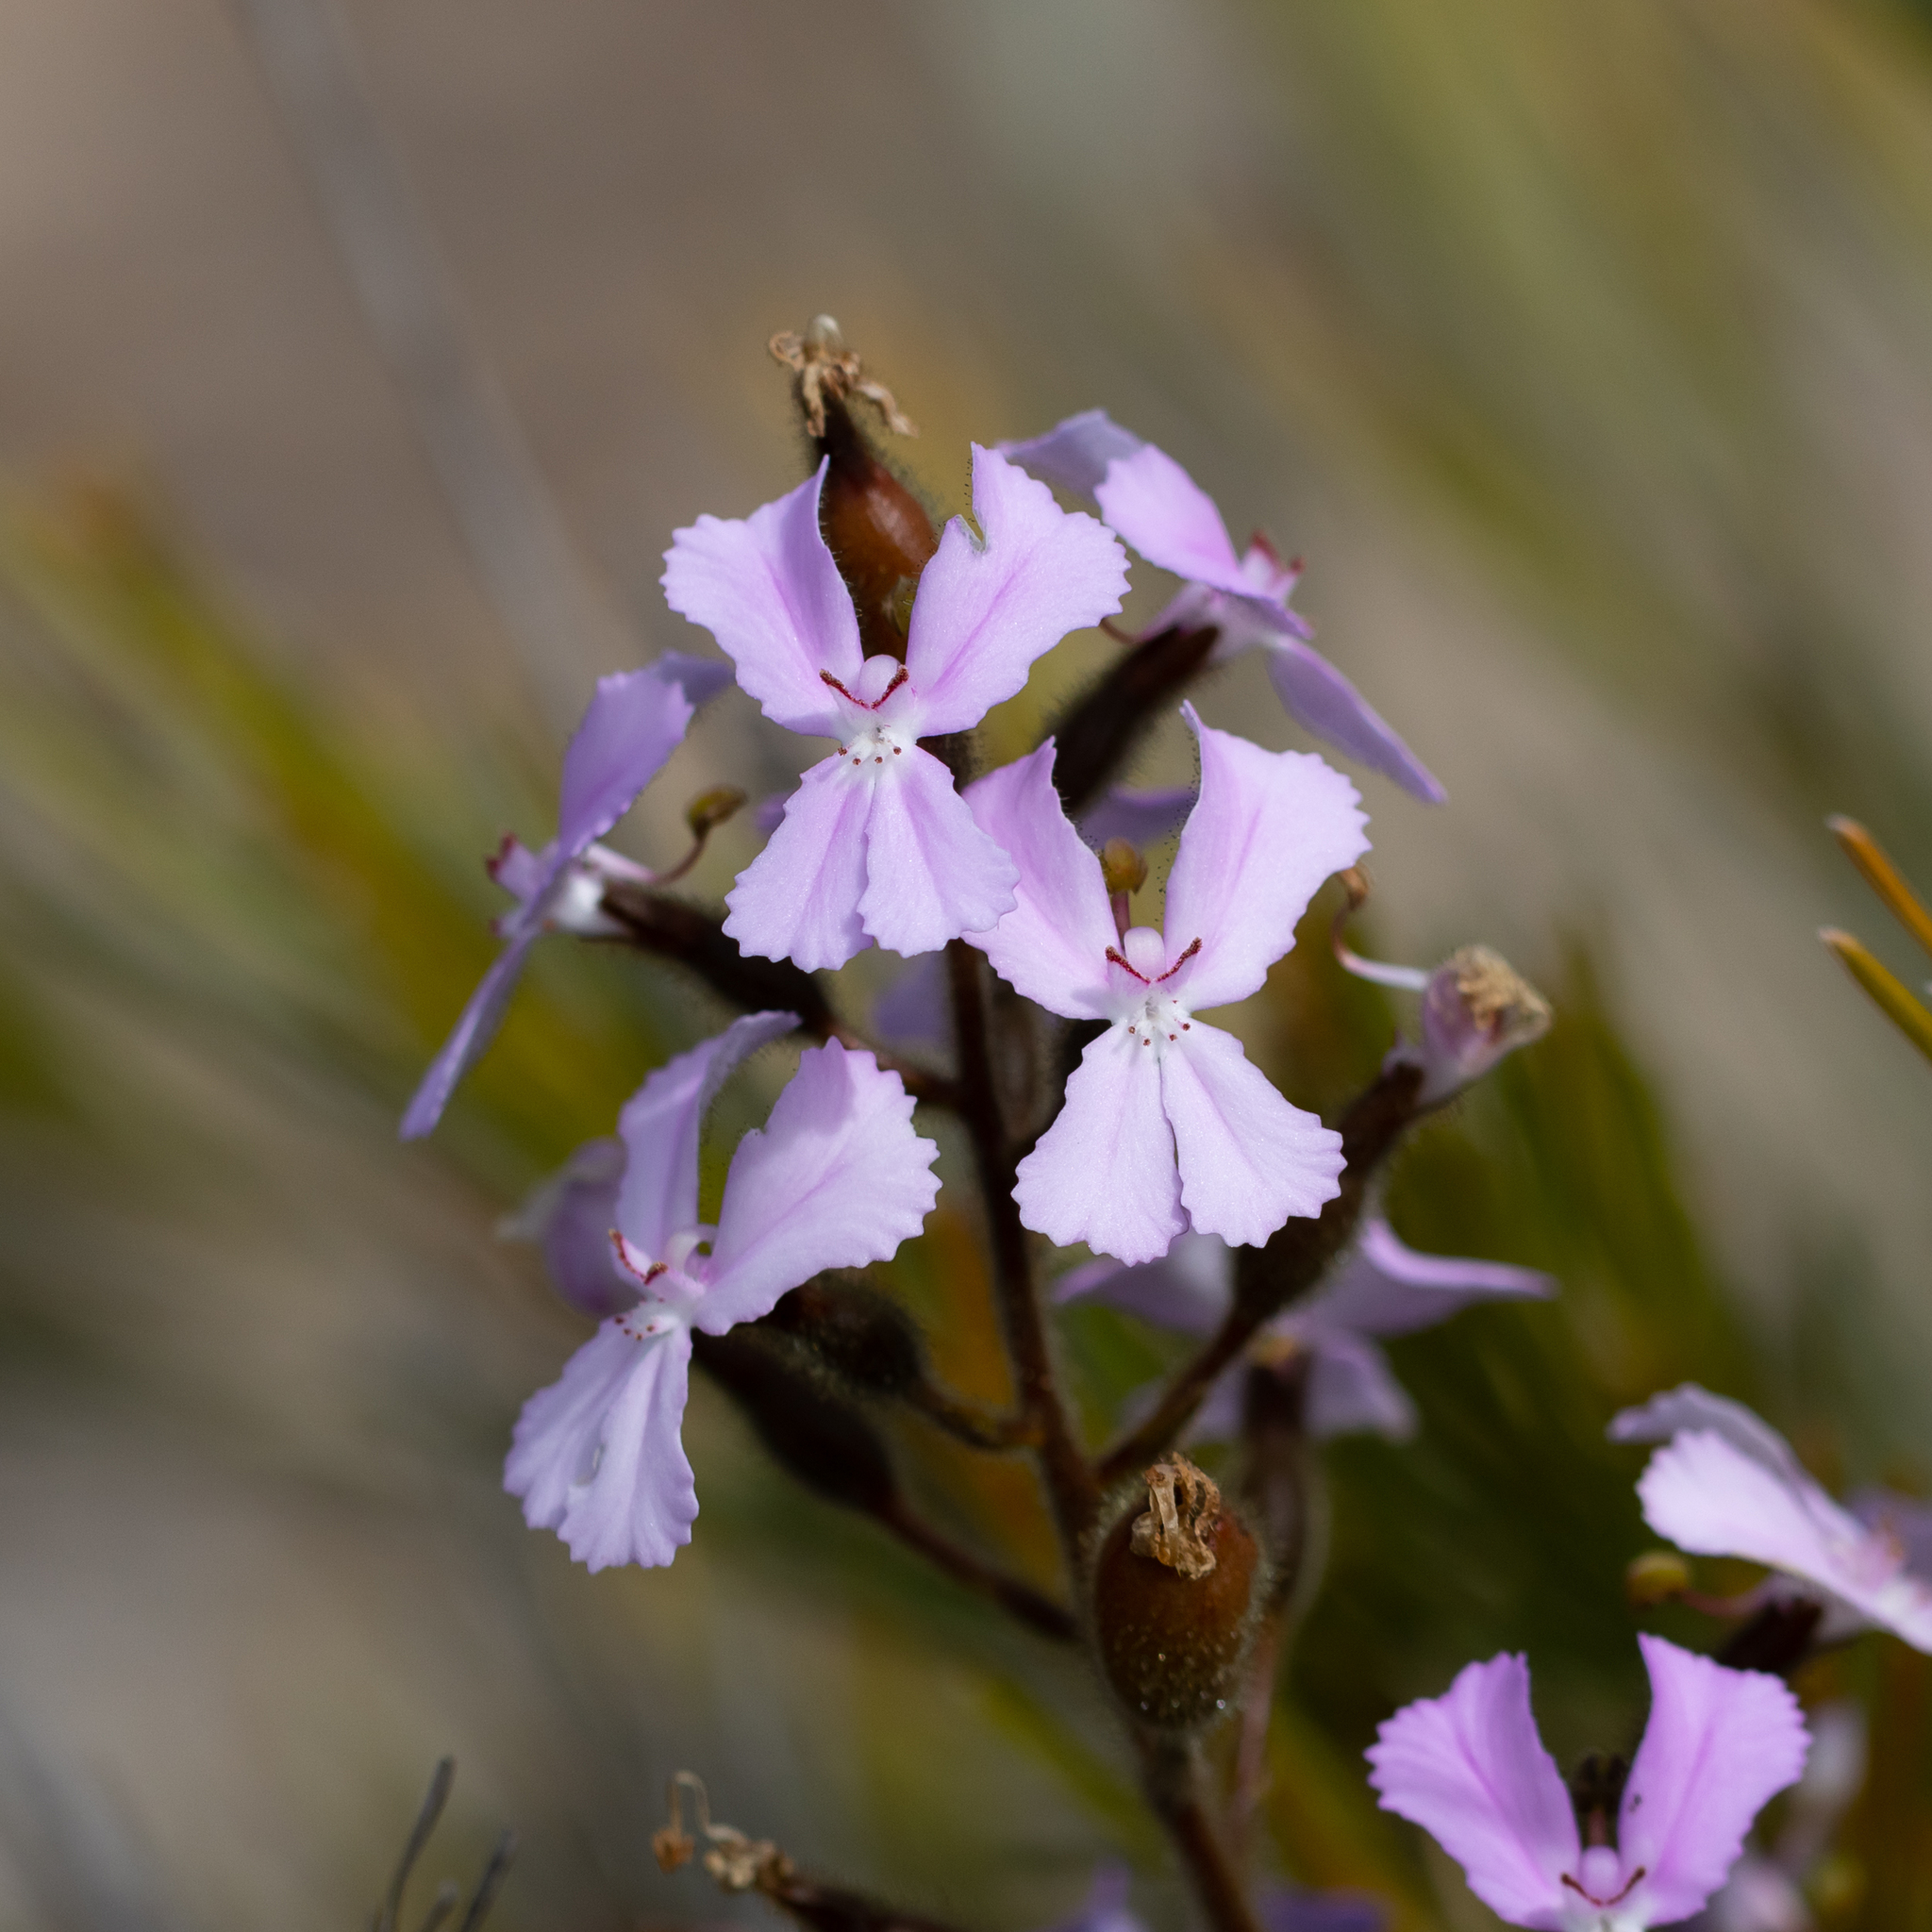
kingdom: Plantae
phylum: Tracheophyta
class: Magnoliopsida
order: Asterales
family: Stylidiaceae
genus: Stylidium
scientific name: Stylidium pilosum
